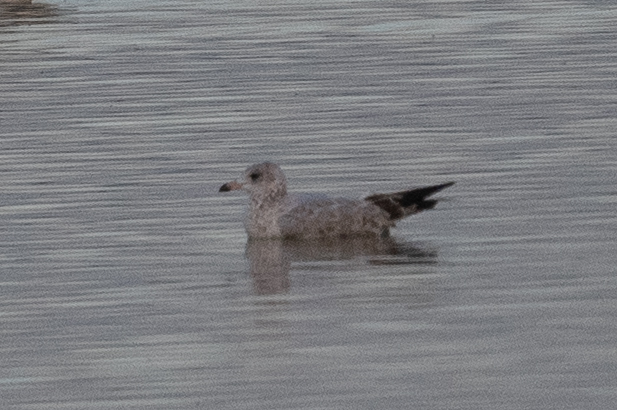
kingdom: Animalia
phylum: Chordata
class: Aves
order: Charadriiformes
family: Laridae
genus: Larus
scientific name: Larus delawarensis
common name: Ring-billed gull
